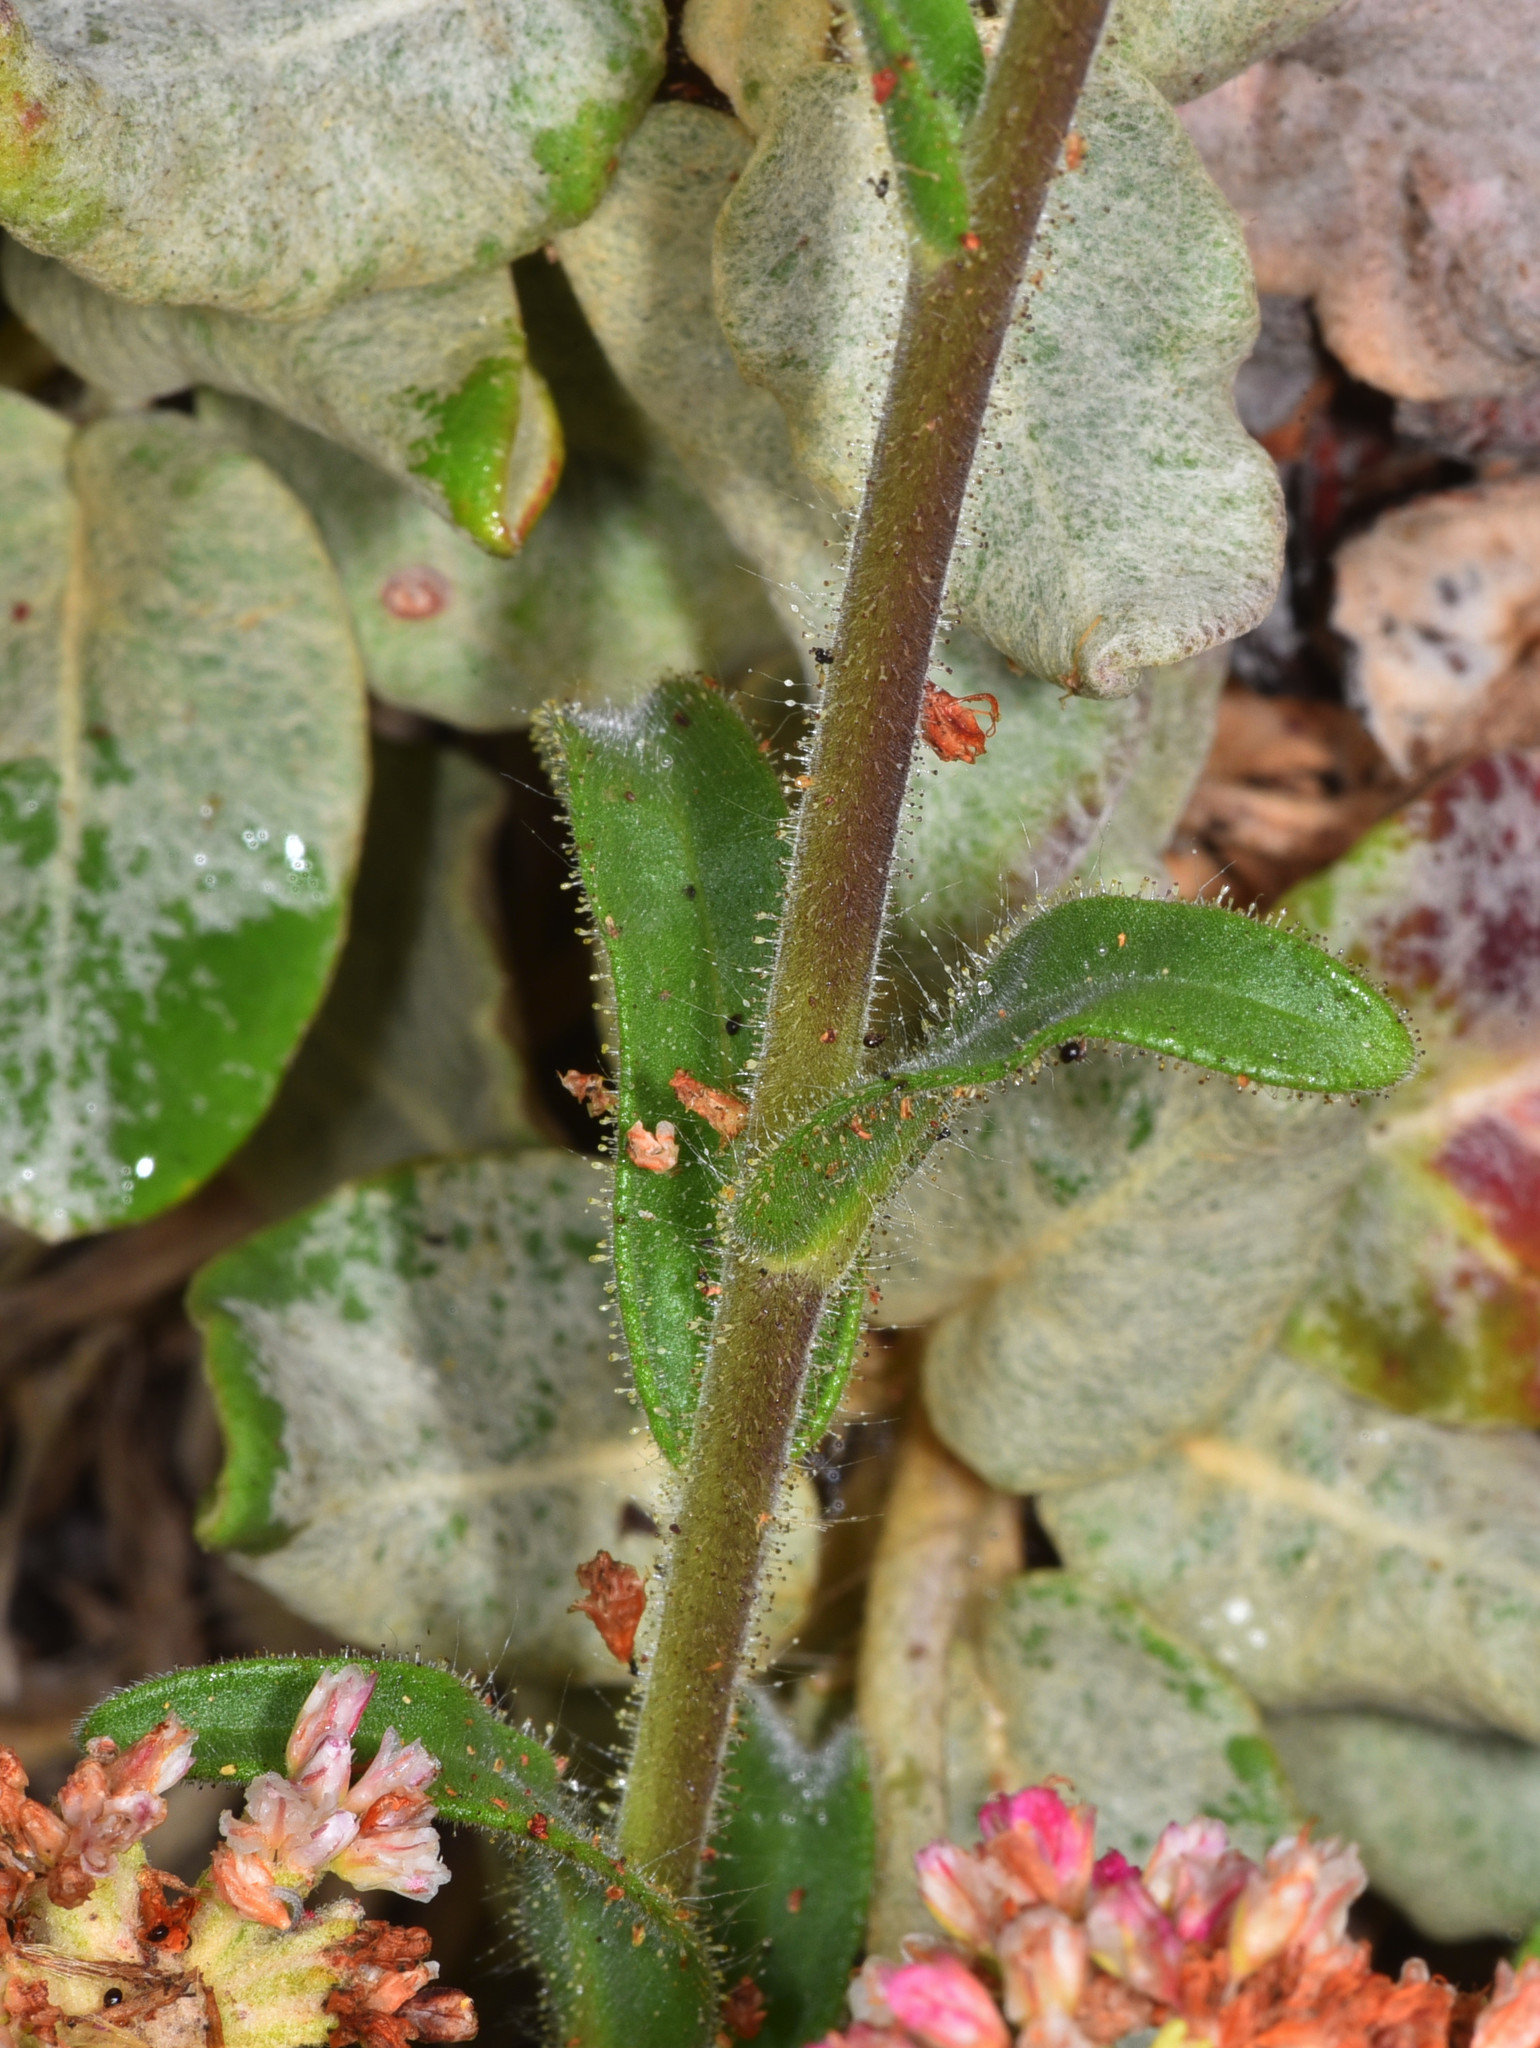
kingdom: Plantae
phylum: Tracheophyta
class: Magnoliopsida
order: Asterales
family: Asteraceae
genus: Madia
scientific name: Madia sativa
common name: Coast tarweed
